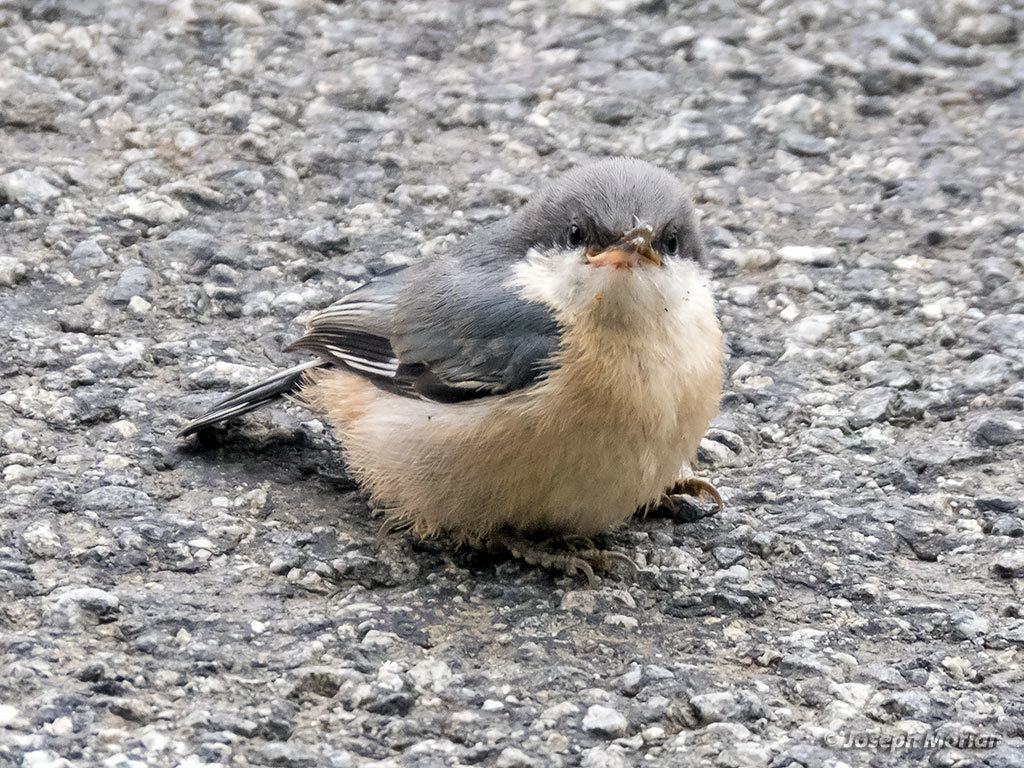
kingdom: Animalia
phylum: Chordata
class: Aves
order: Passeriformes
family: Sittidae
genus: Sitta
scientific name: Sitta pygmaea
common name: Pygmy nuthatch
